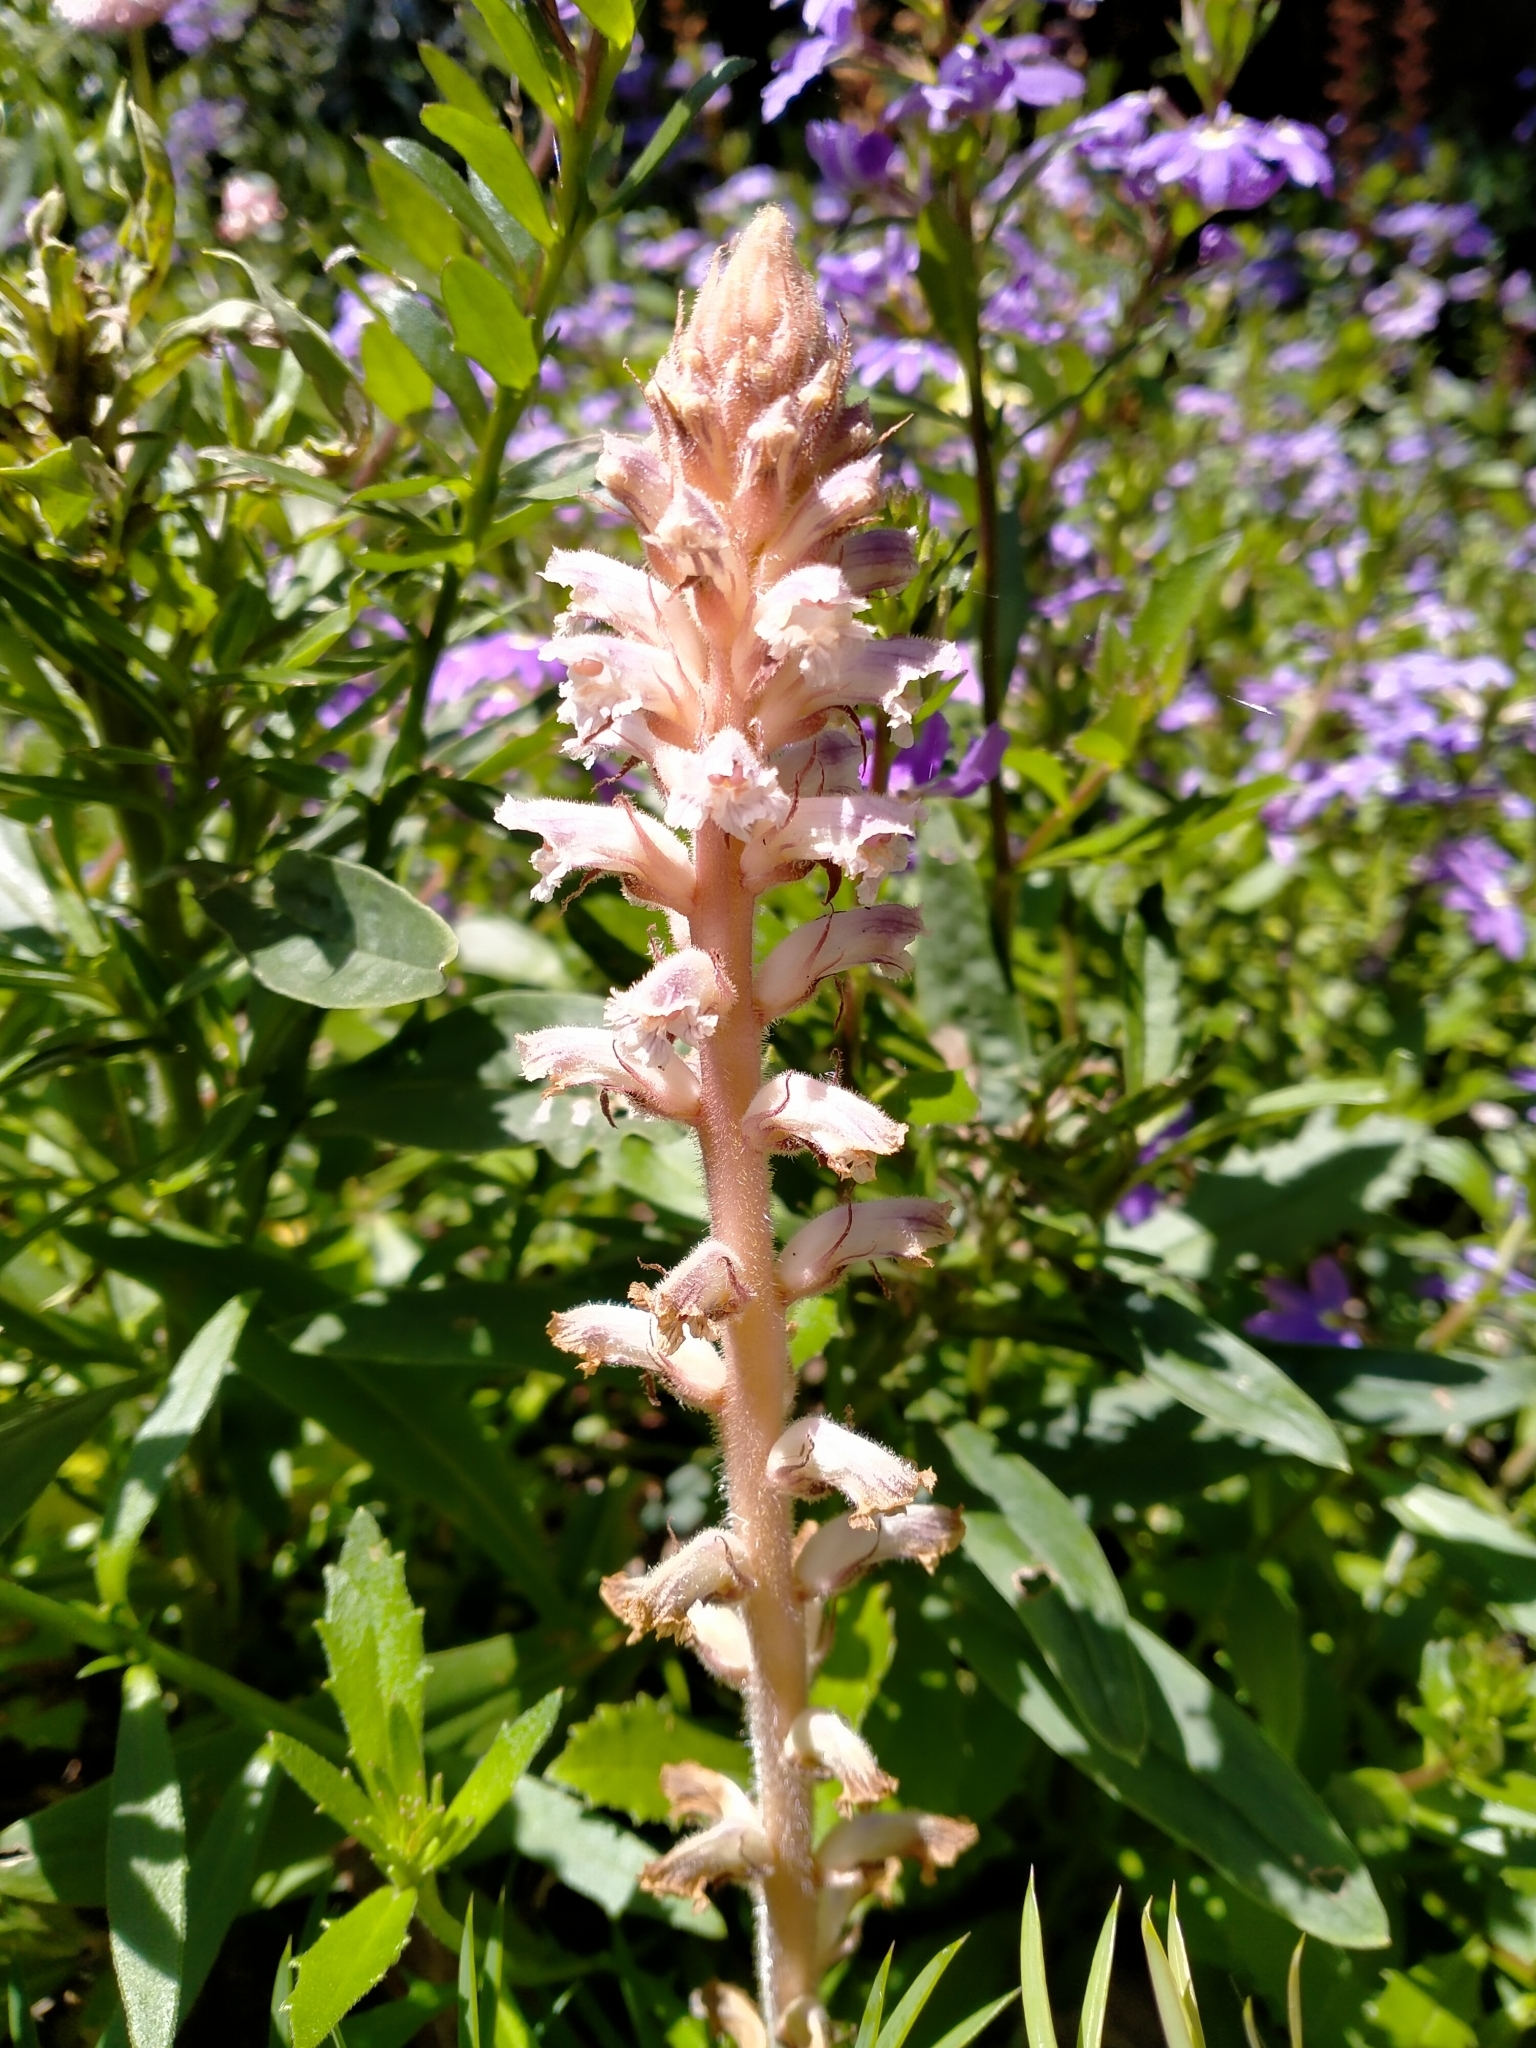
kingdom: Plantae
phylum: Tracheophyta
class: Magnoliopsida
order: Lamiales
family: Orobanchaceae
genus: Orobanche
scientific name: Orobanche minor
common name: Common broomrape
